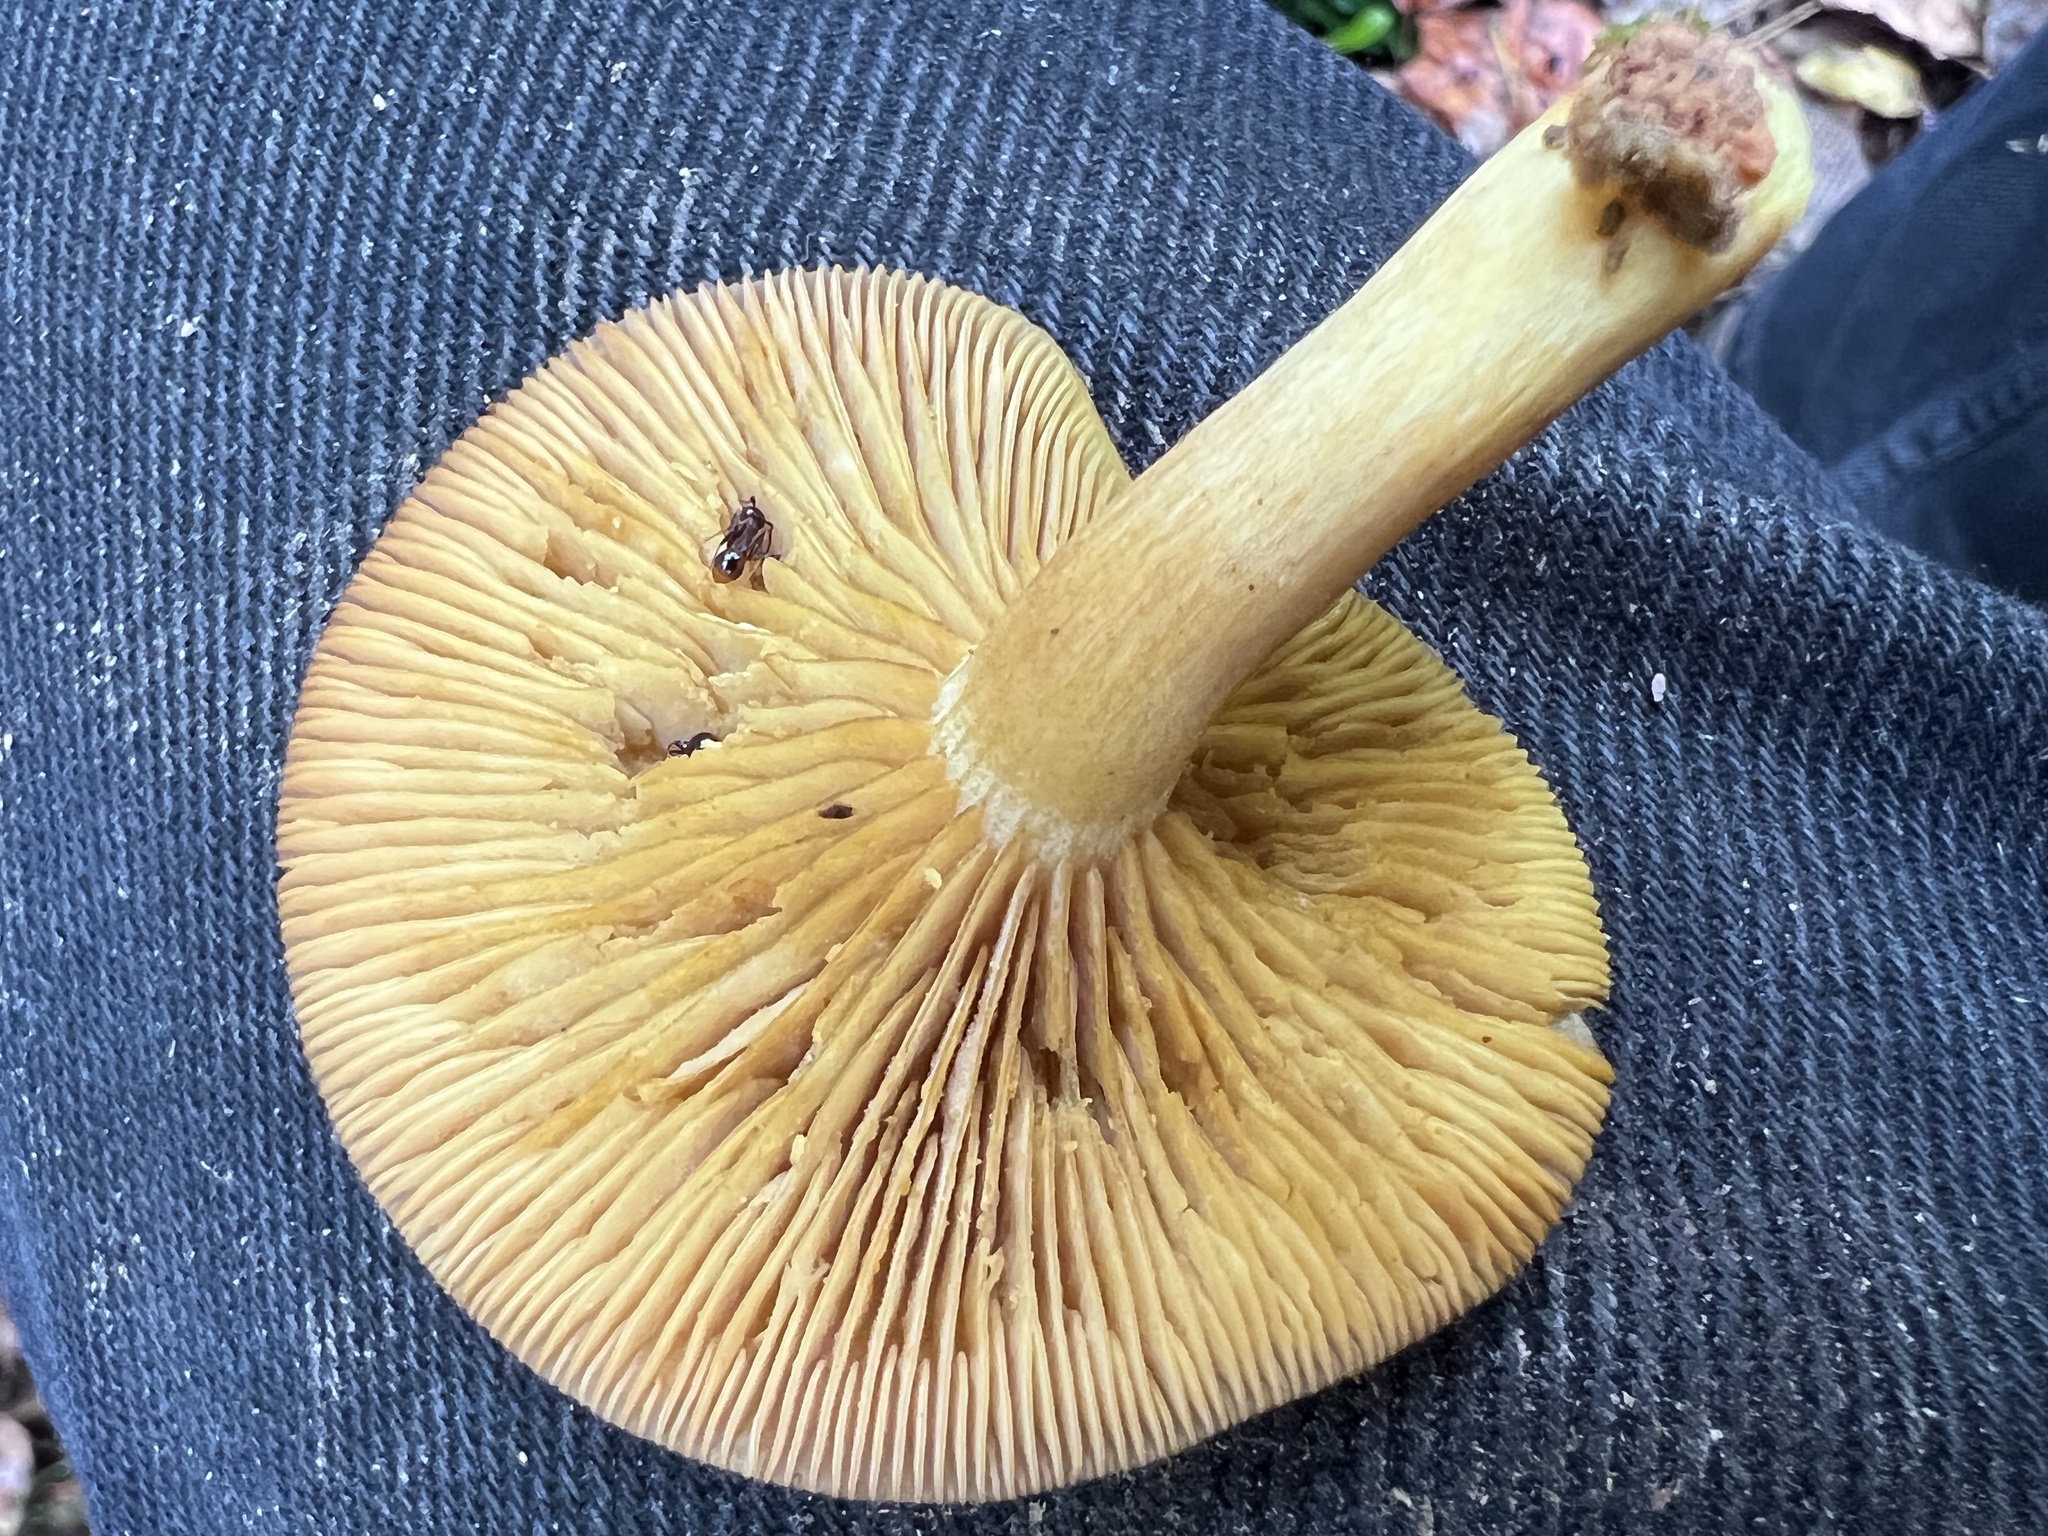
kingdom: Fungi
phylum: Basidiomycota
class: Agaricomycetes
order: Agaricales
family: Tricholomataceae
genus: Tricholomopsis
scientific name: Tricholomopsis decora
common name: Prunes and custard
